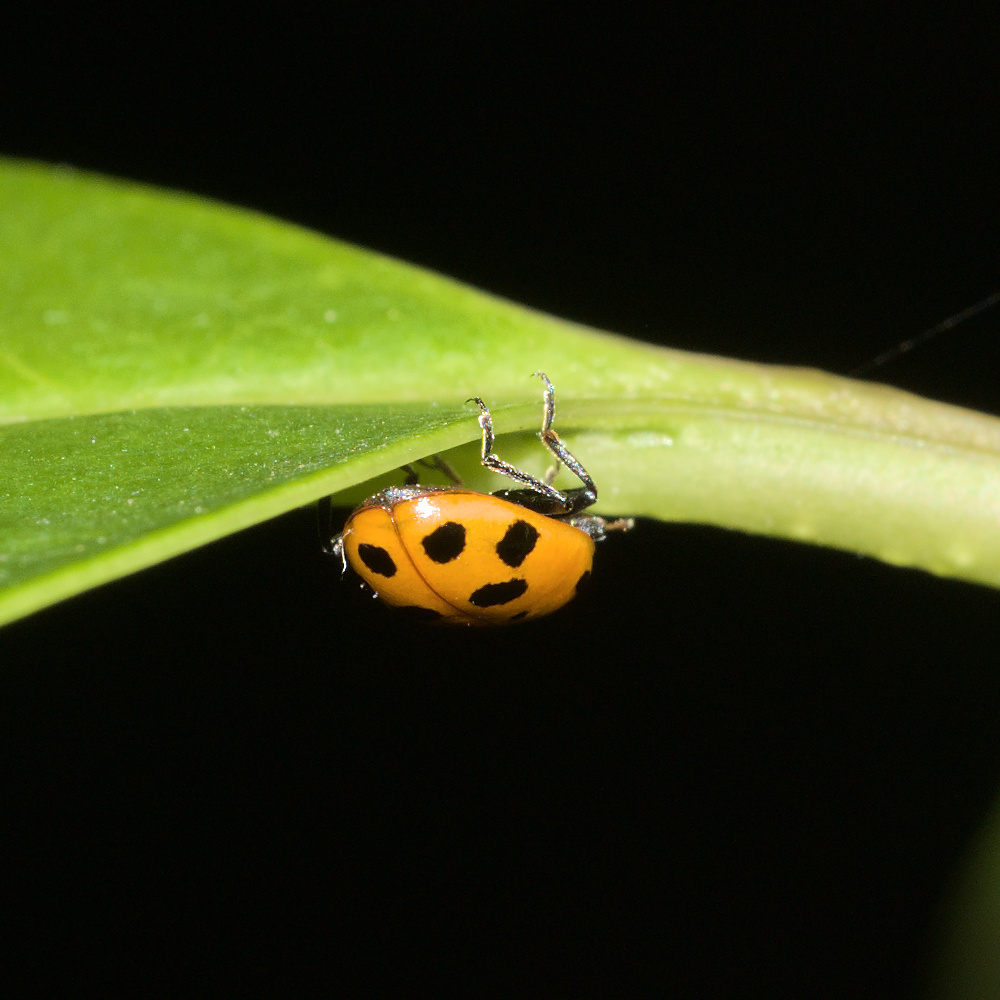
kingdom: Animalia
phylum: Arthropoda
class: Insecta
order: Coleoptera
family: Coccinellidae
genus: Hippodamia
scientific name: Hippodamia variegata
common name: Ladybird beetle
